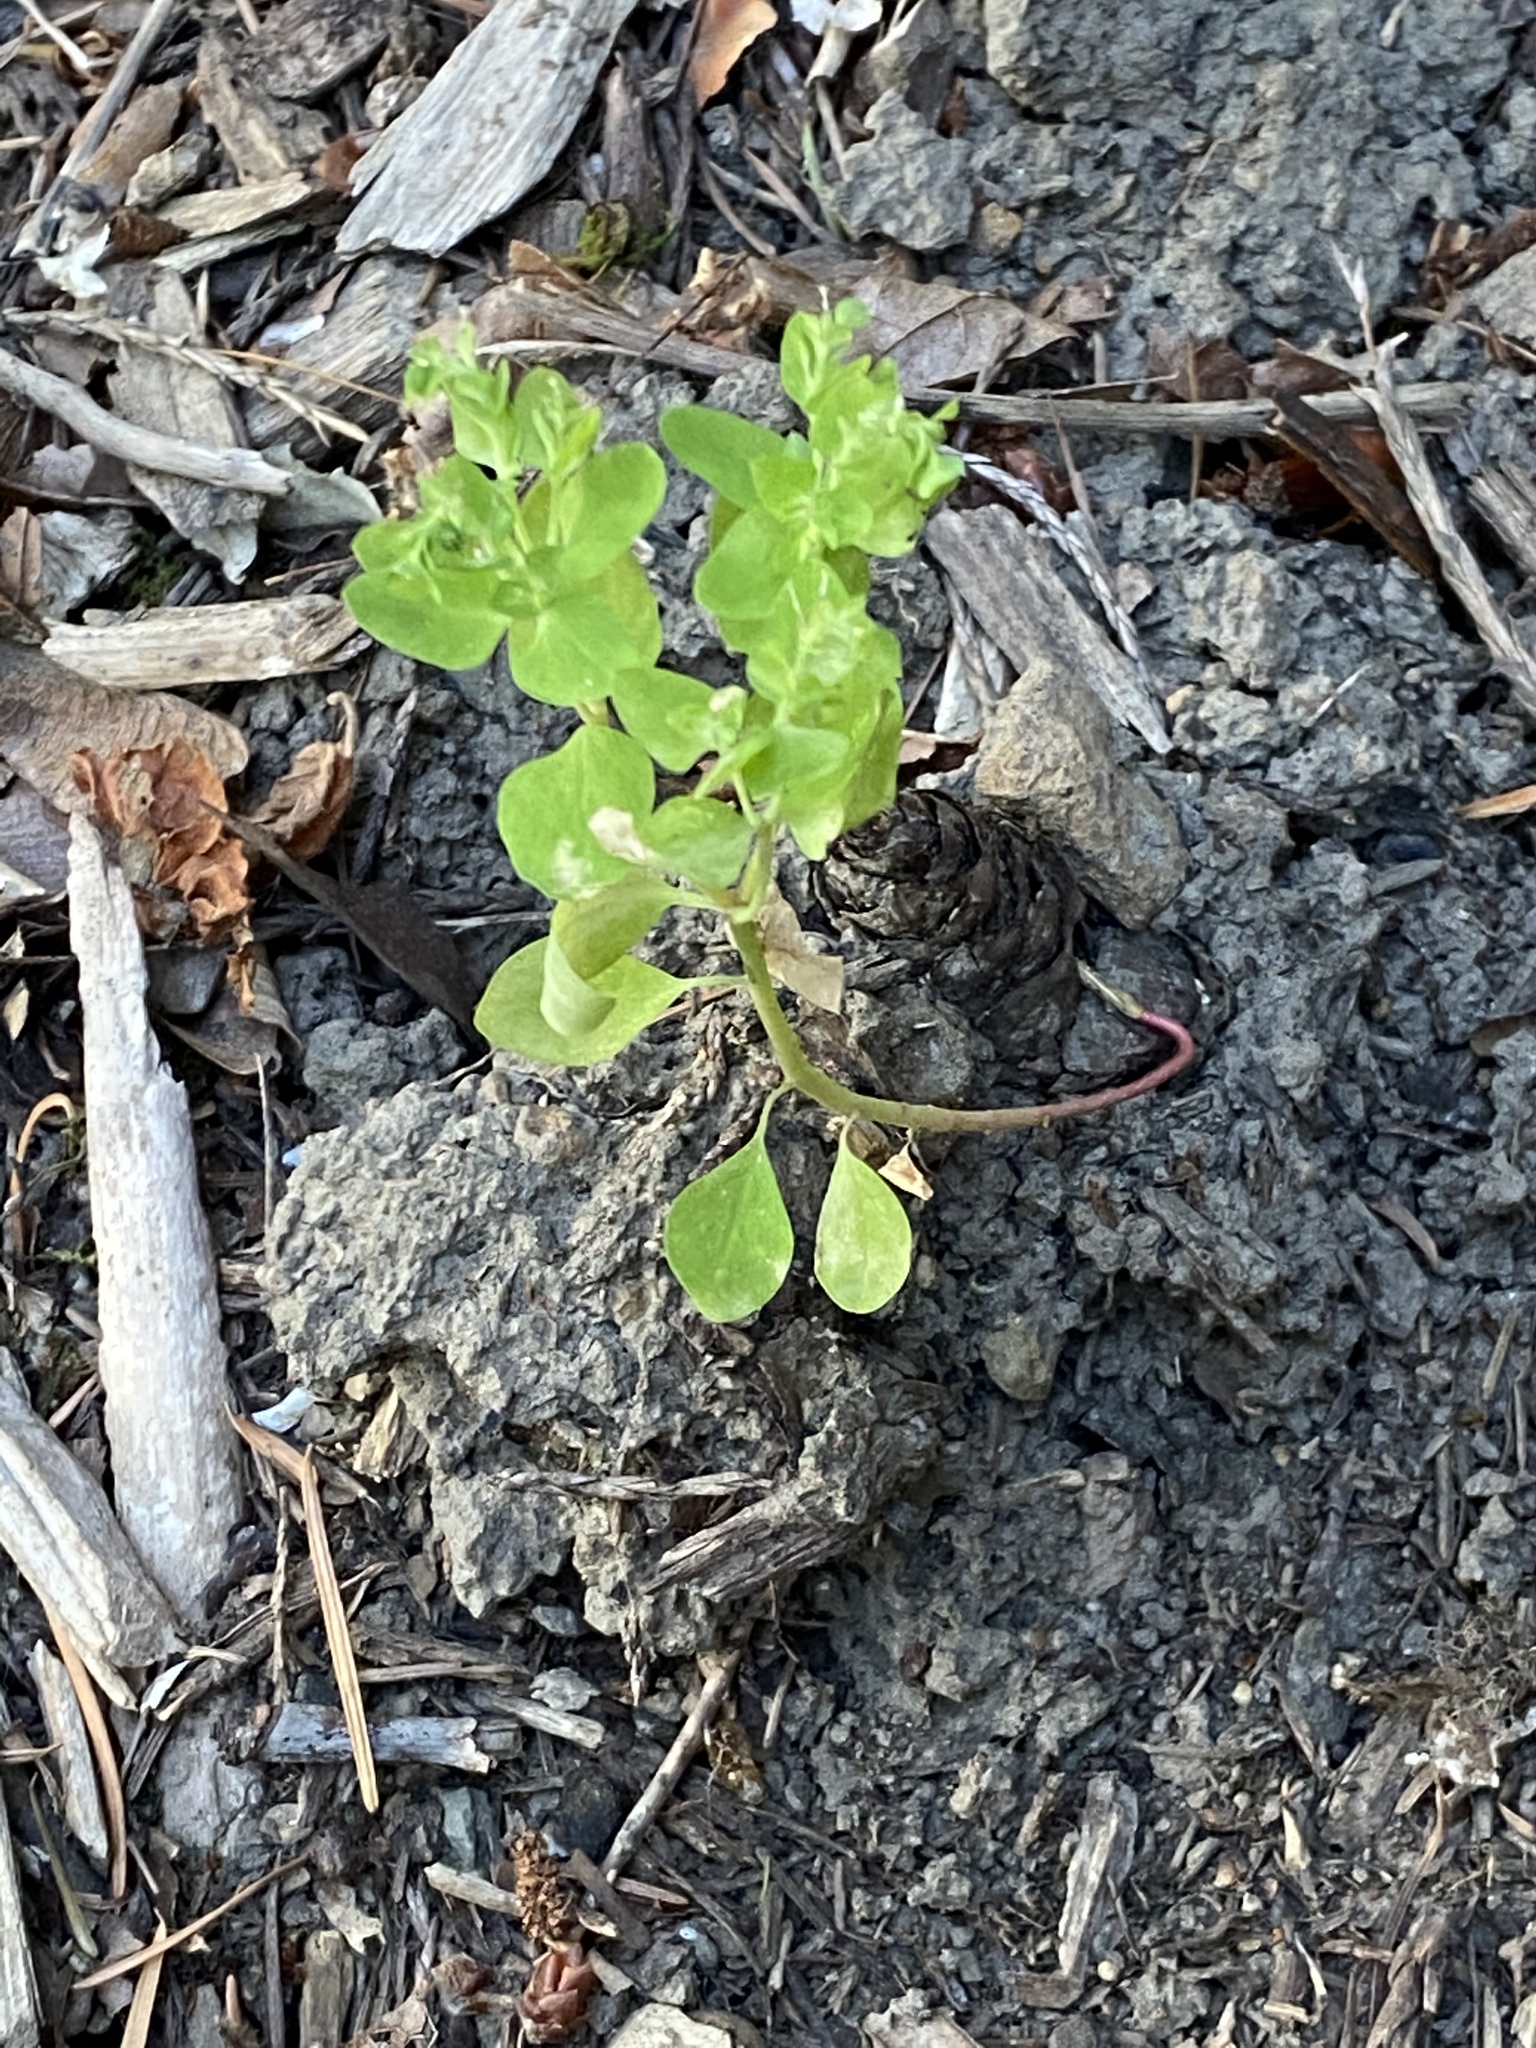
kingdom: Plantae
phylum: Tracheophyta
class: Magnoliopsida
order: Malpighiales
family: Euphorbiaceae
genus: Euphorbia
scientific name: Euphorbia peplus
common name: Petty spurge
